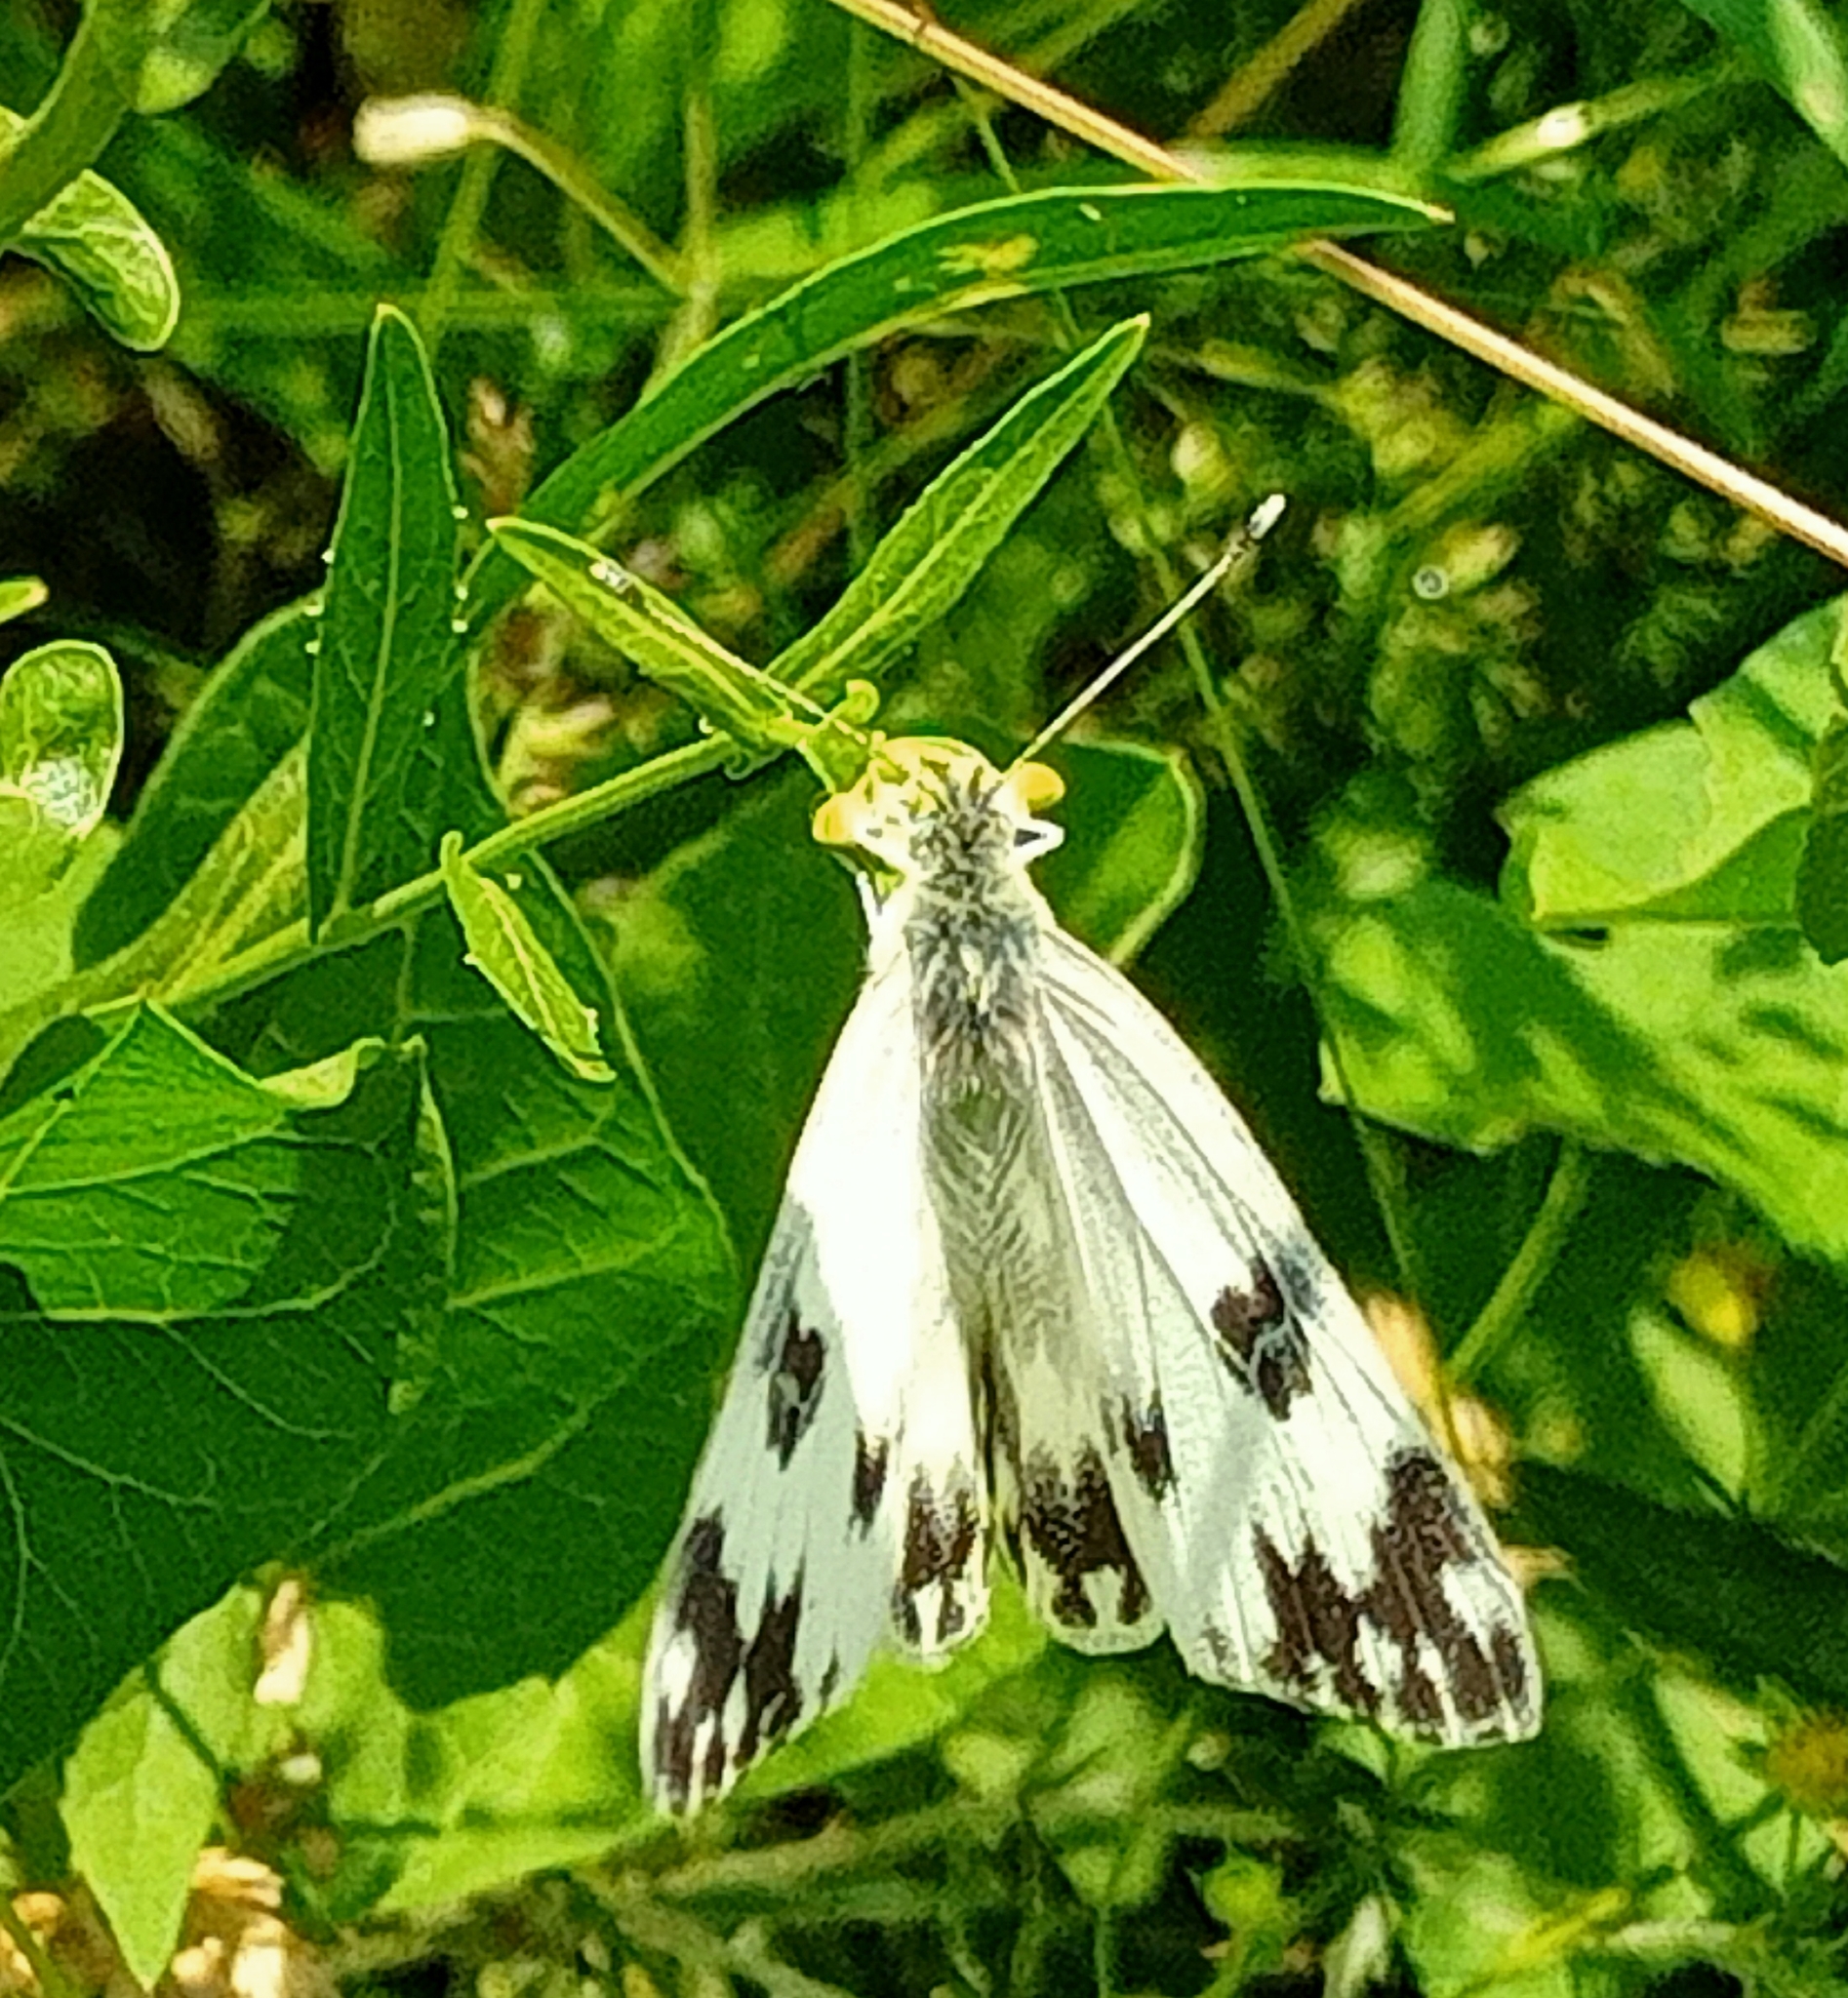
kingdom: Animalia
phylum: Arthropoda
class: Insecta
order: Lepidoptera
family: Pieridae
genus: Pontia
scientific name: Pontia edusa
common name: Eastern bath white
